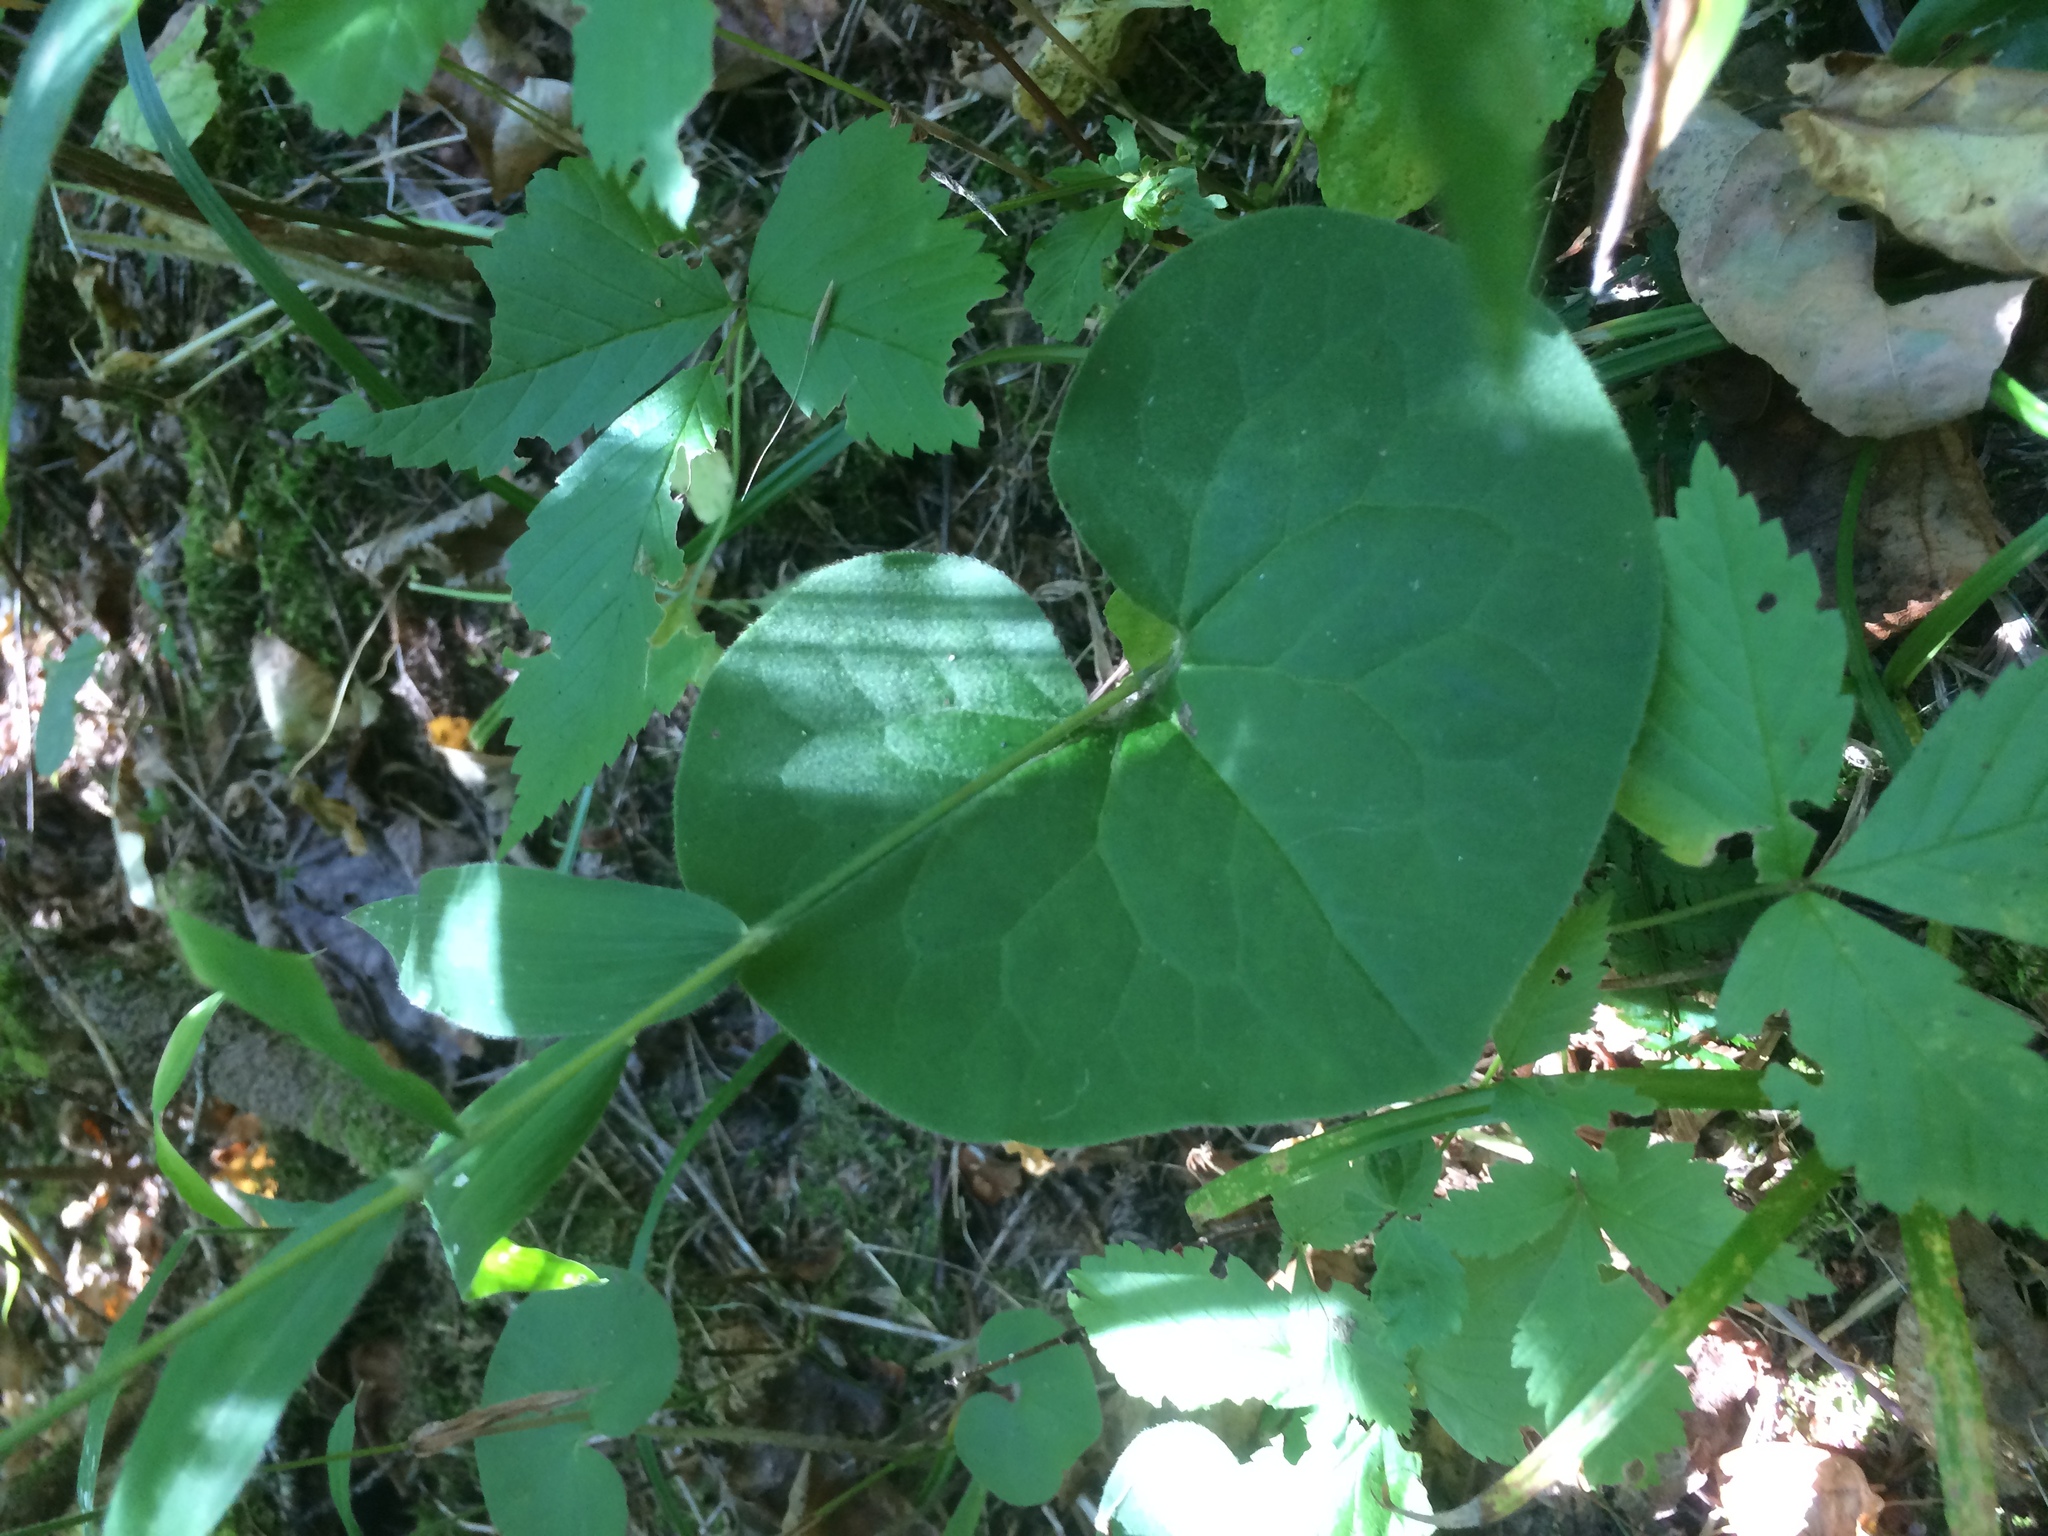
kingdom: Plantae
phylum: Tracheophyta
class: Magnoliopsida
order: Piperales
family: Aristolochiaceae
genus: Asarum
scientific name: Asarum canadense
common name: Wild ginger
